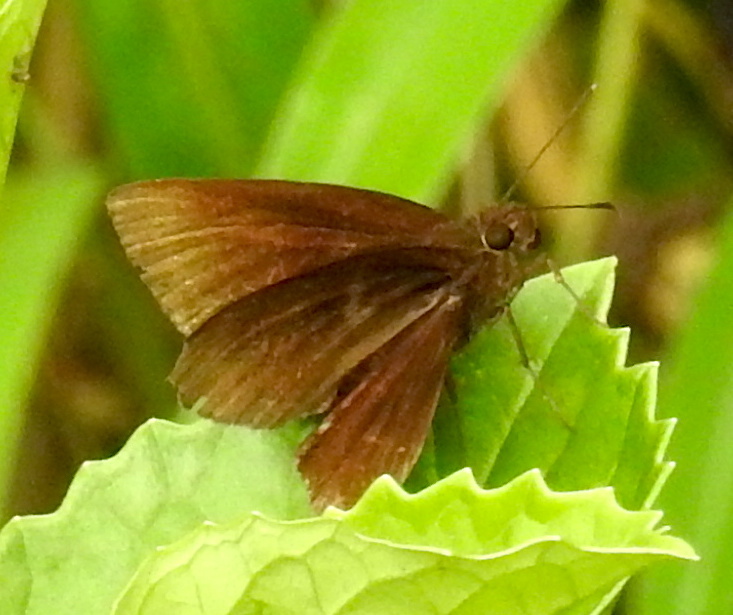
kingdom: Animalia
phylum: Arthropoda
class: Insecta
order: Lepidoptera
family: Hesperiidae
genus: Ancistroides
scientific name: Ancistroides nigrita
